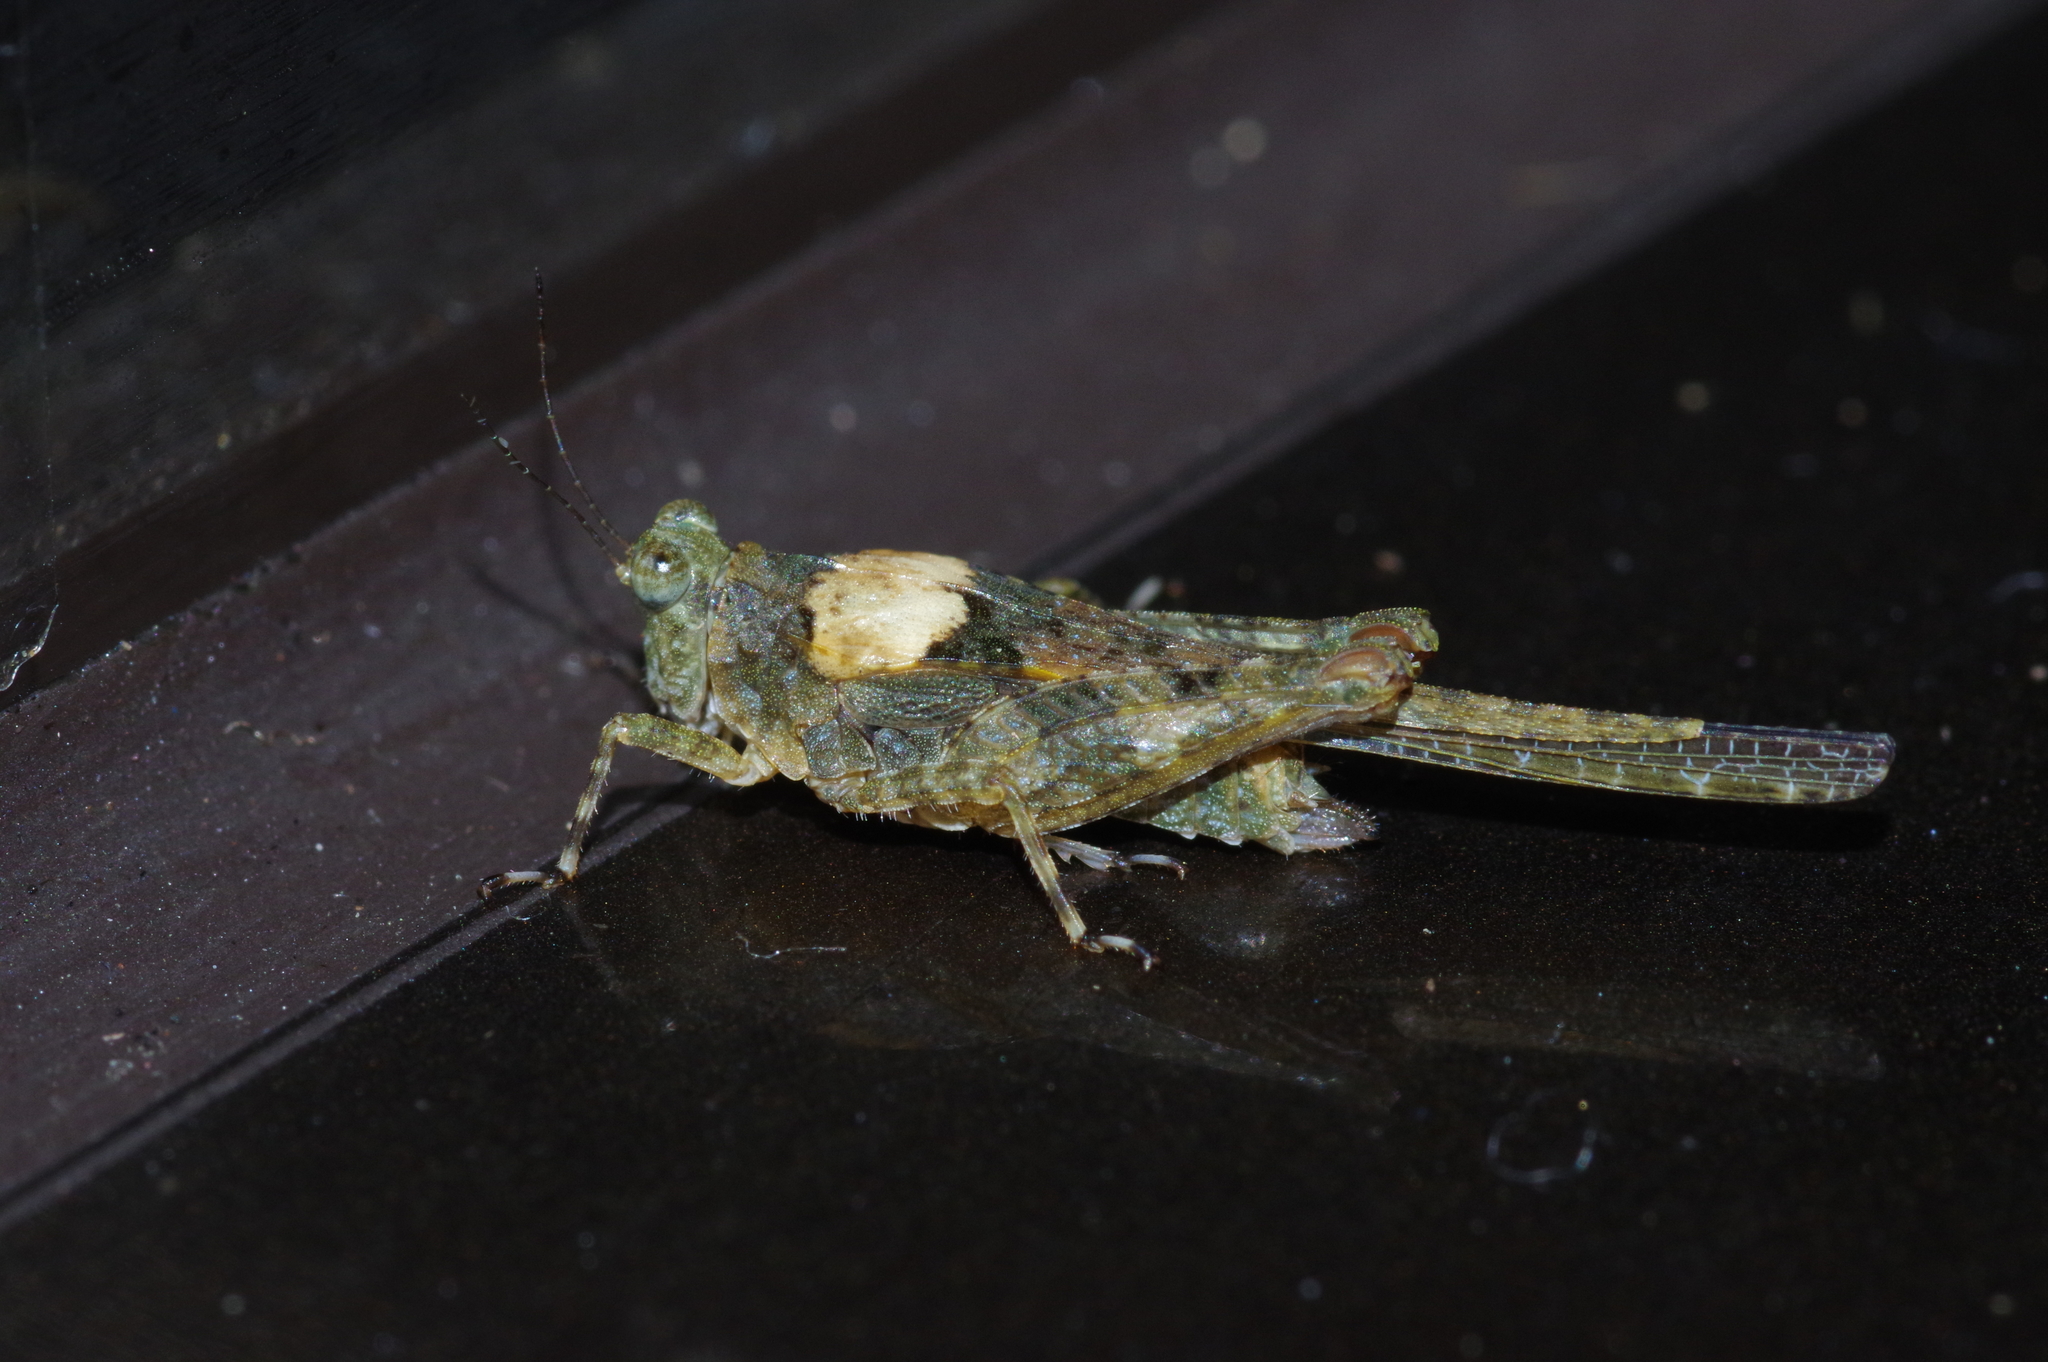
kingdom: Animalia
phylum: Arthropoda
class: Insecta
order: Orthoptera
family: Tetrigidae
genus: Paratettix
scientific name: Paratettix histricus
